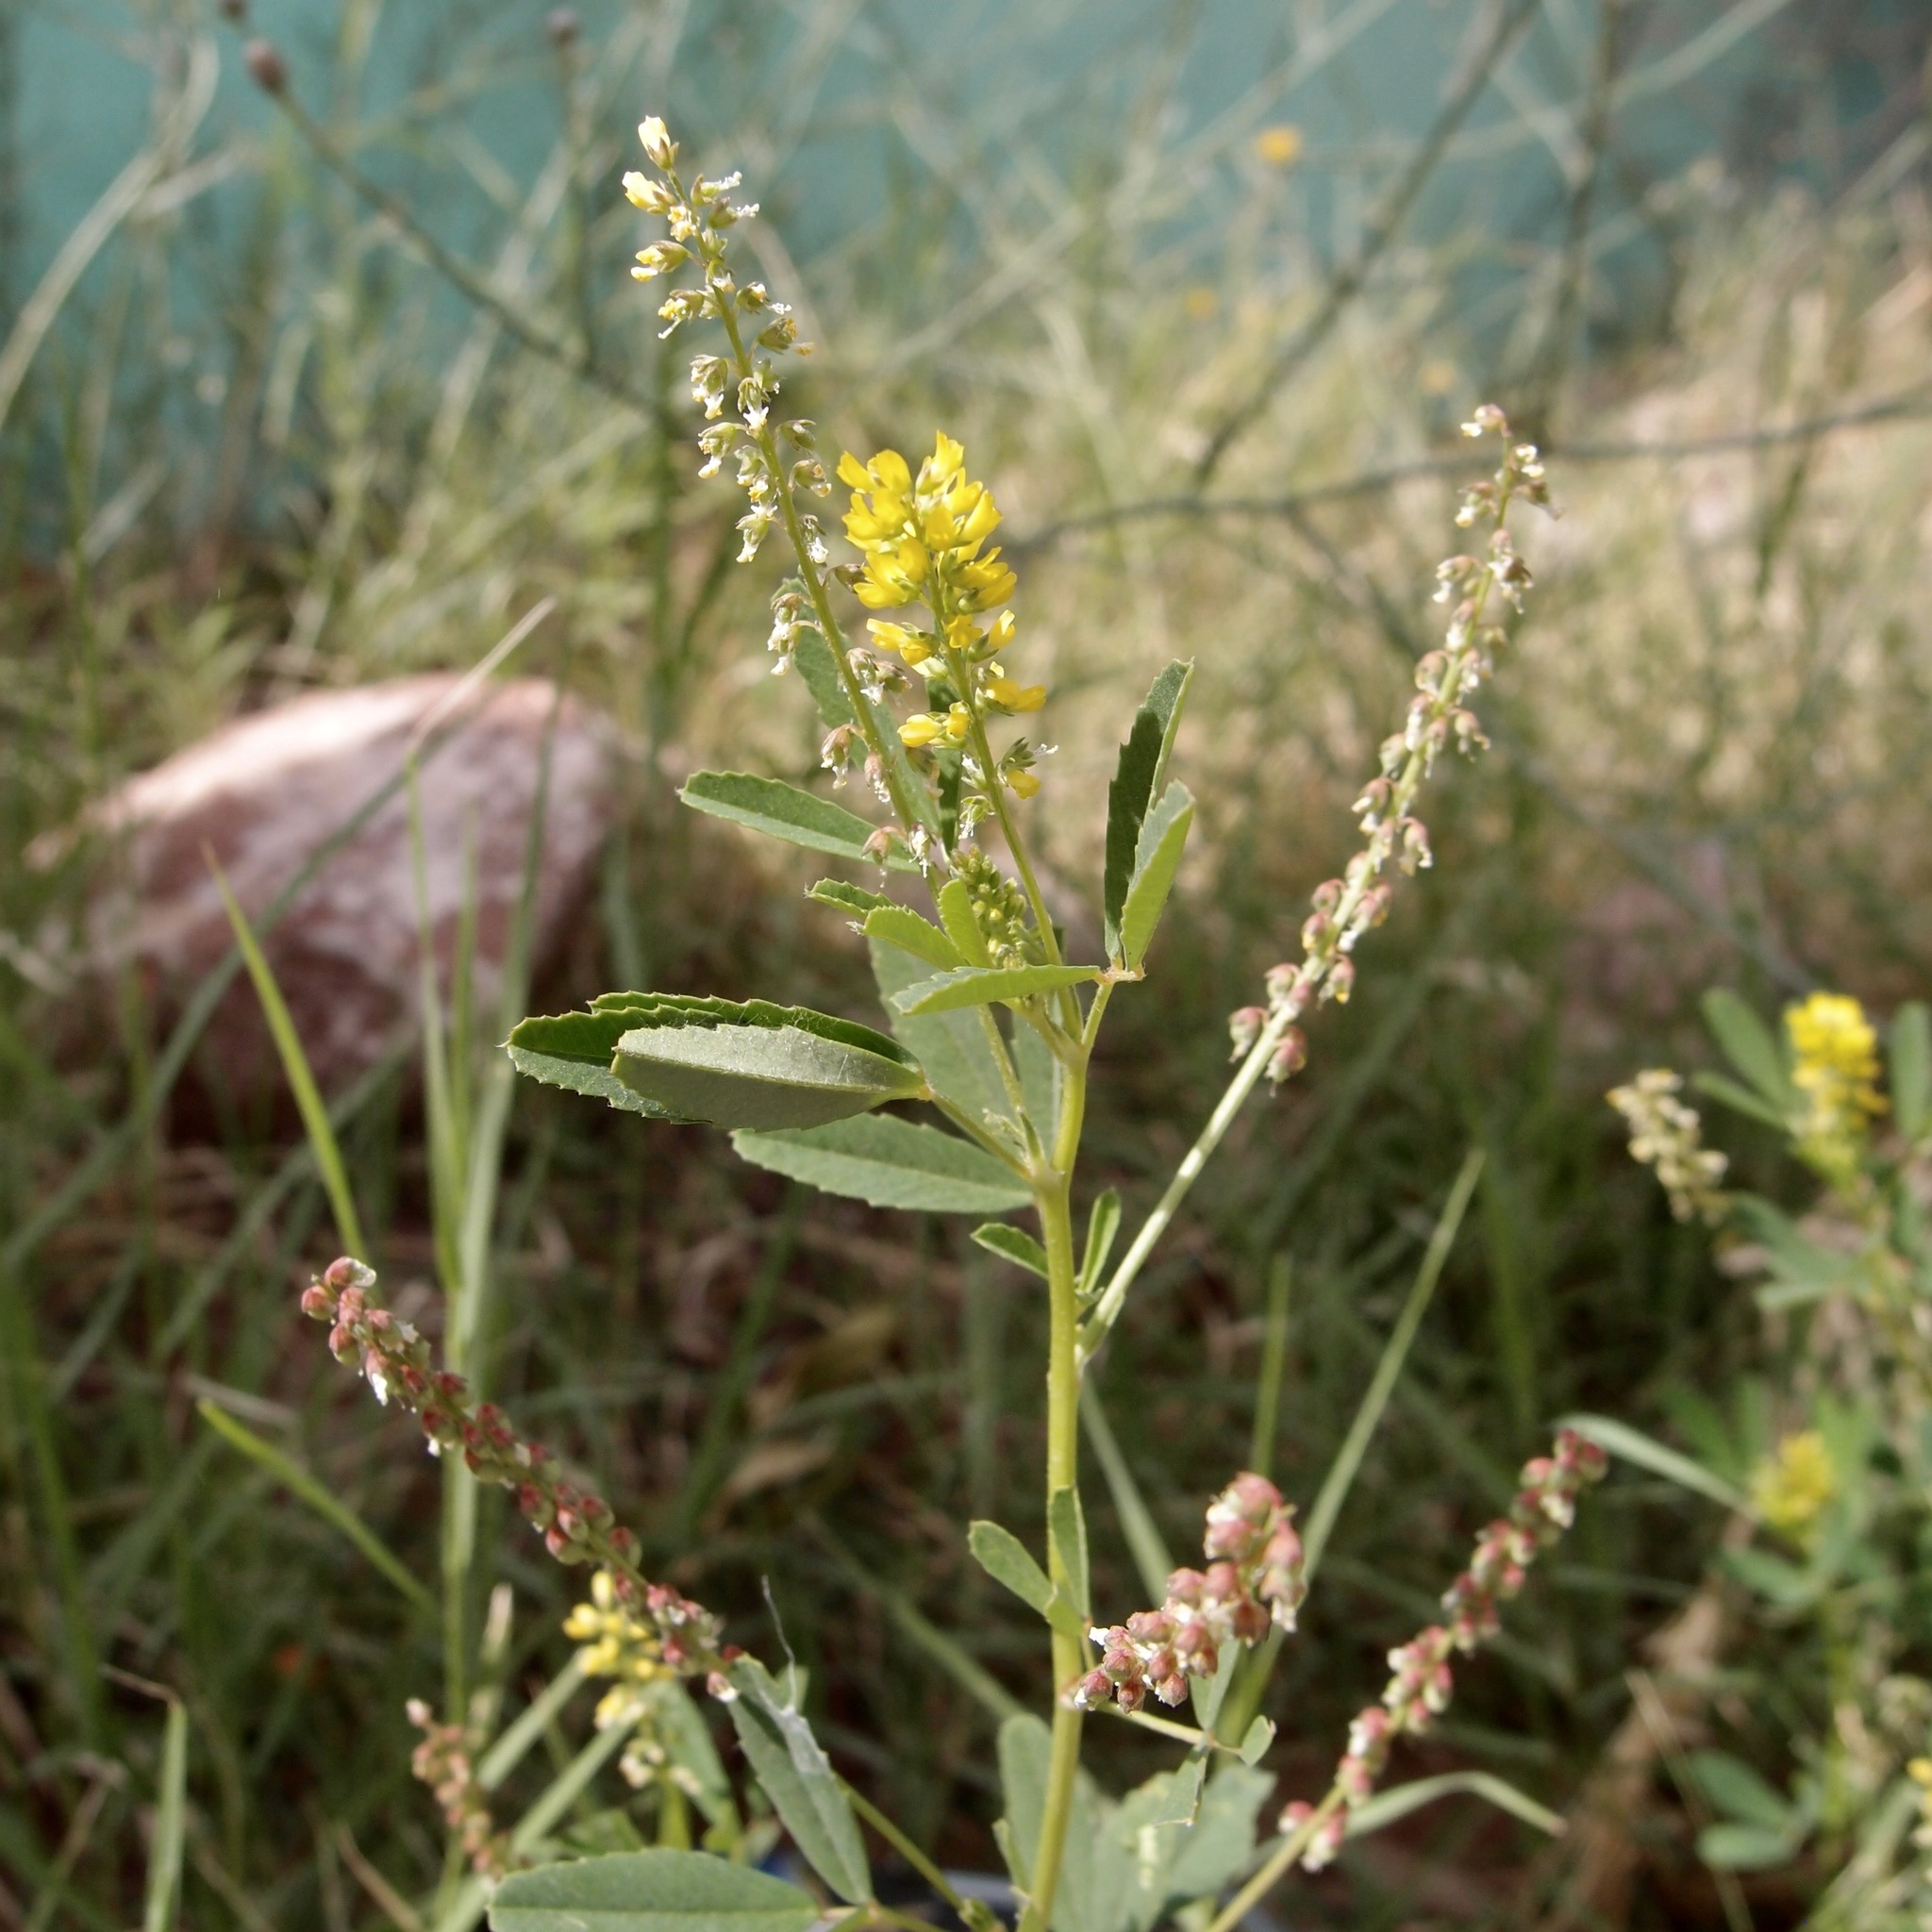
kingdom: Plantae
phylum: Tracheophyta
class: Magnoliopsida
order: Fabales
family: Fabaceae
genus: Melilotus
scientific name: Melilotus indicus
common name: Small melilot
